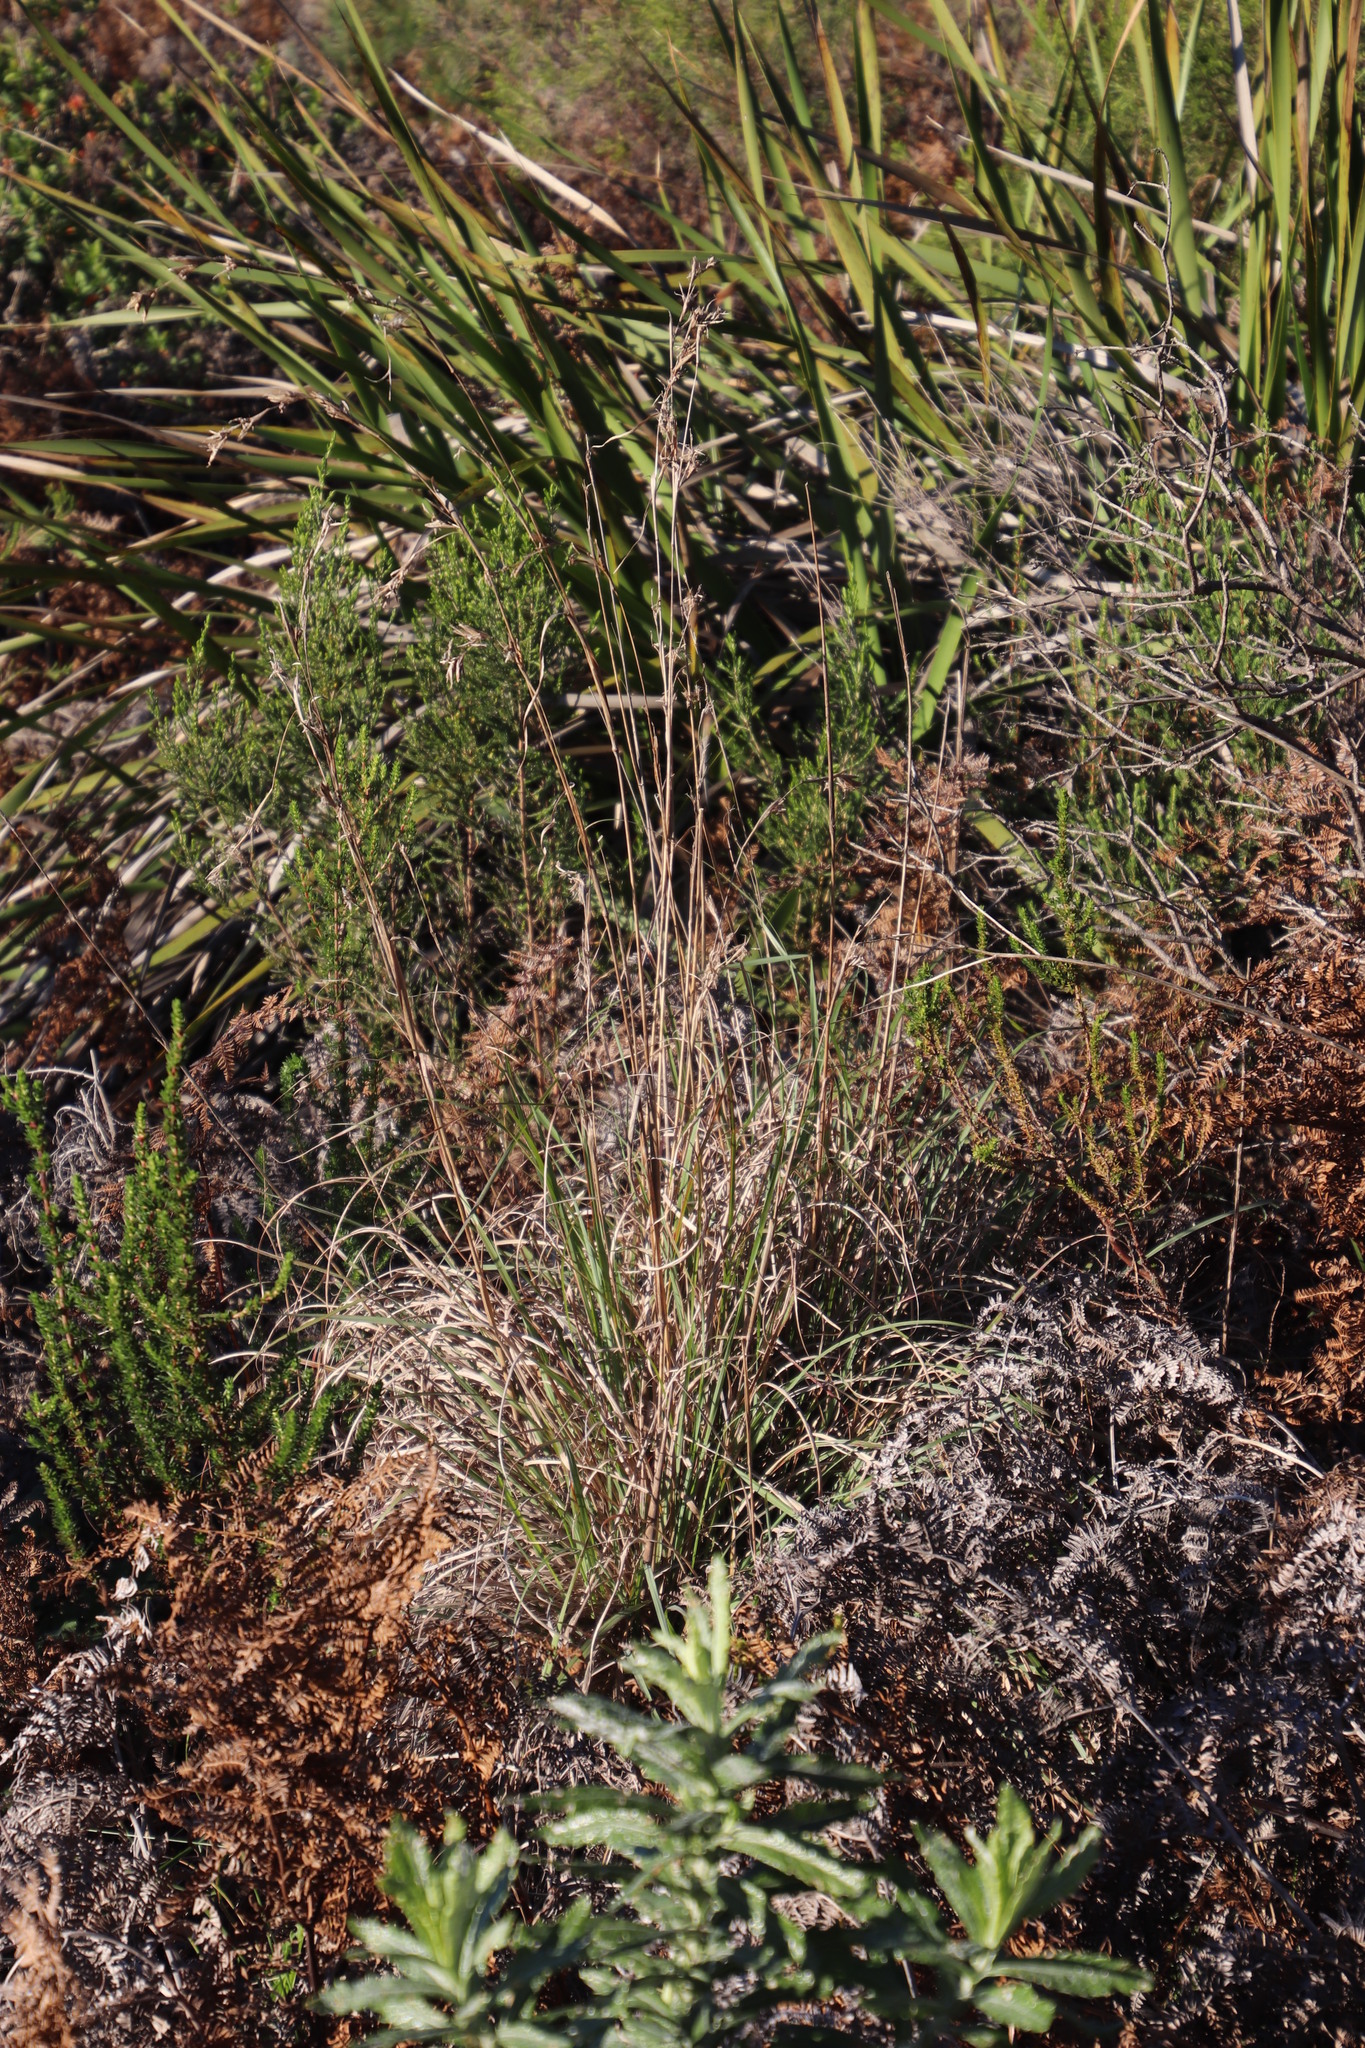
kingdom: Plantae
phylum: Tracheophyta
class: Liliopsida
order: Poales
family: Poaceae
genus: Cymbopogon
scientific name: Cymbopogon marginatus
